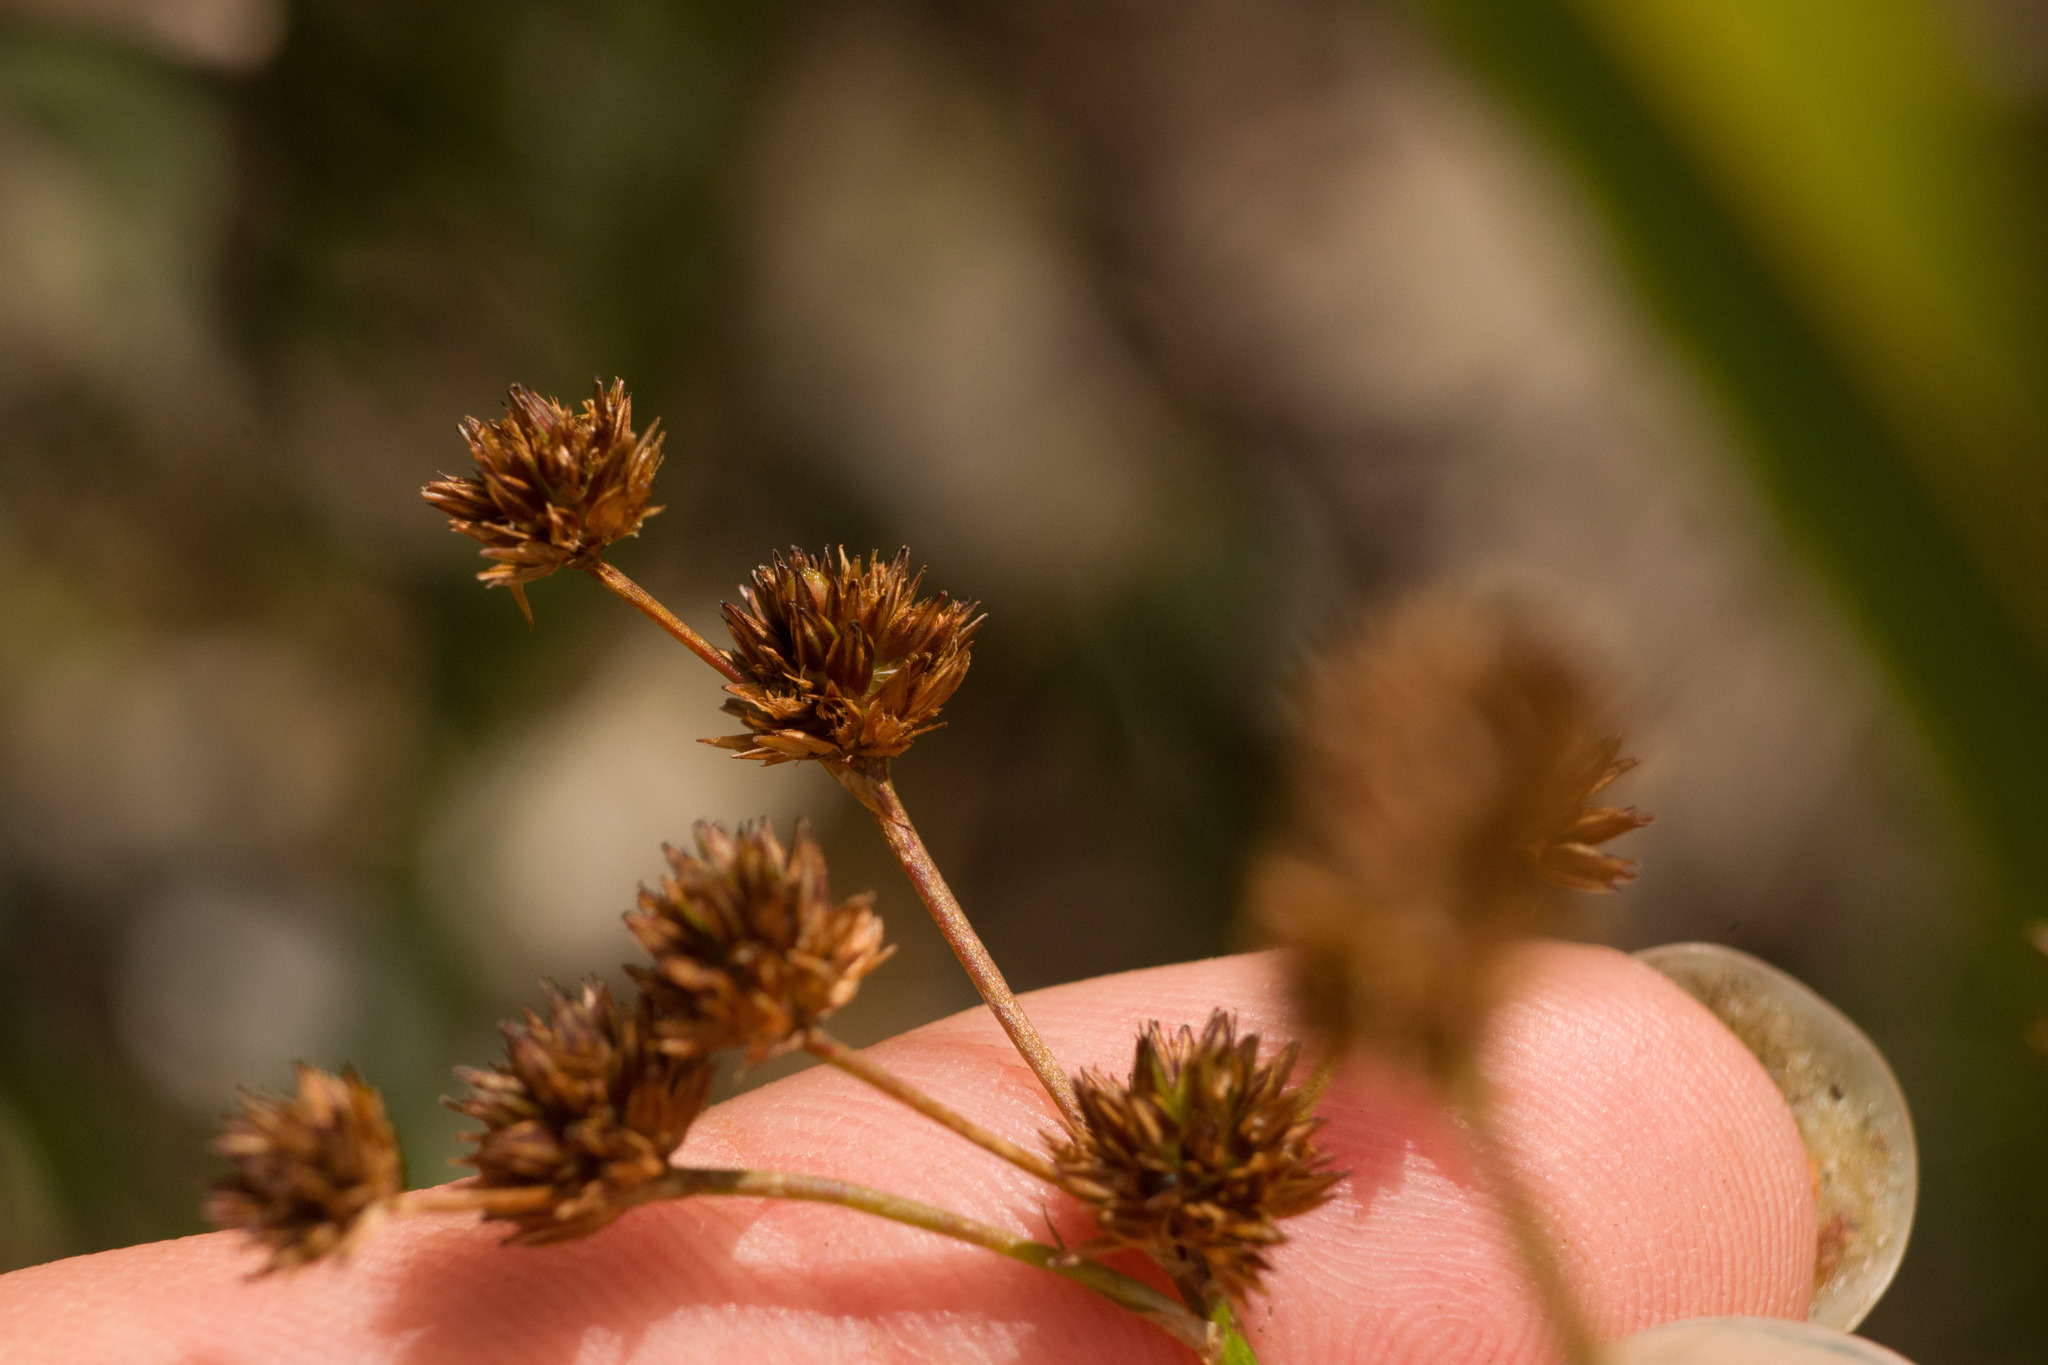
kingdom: Plantae
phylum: Tracheophyta
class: Liliopsida
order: Poales
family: Juncaceae
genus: Juncus
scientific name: Juncus planifolius
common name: Broadleaf rush
